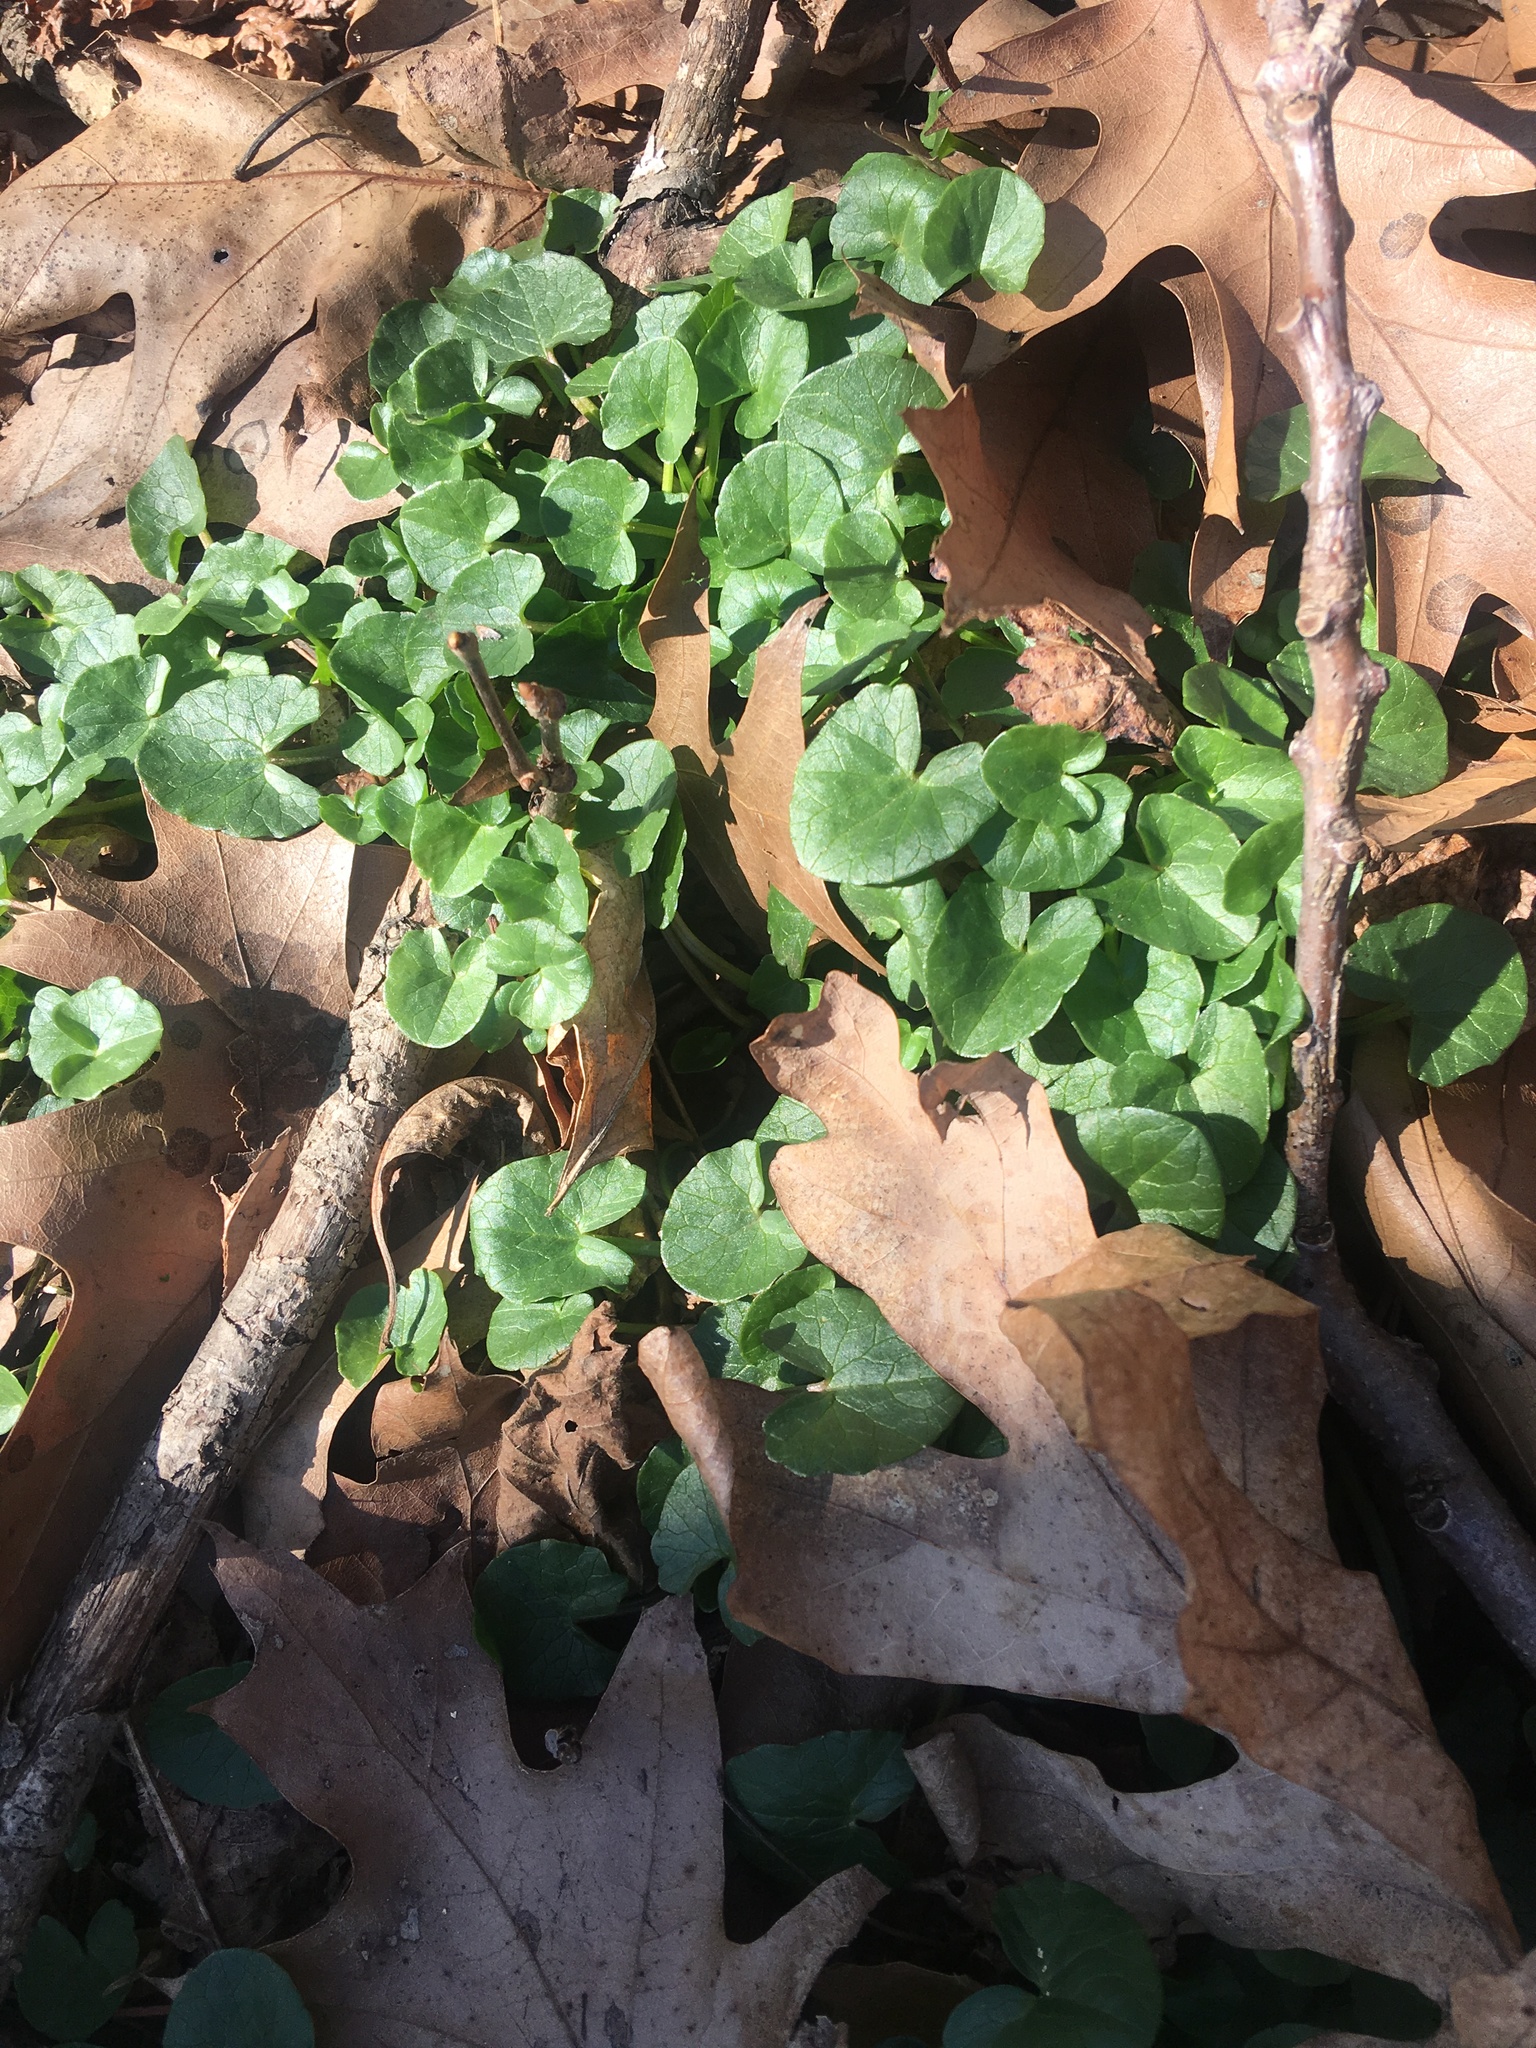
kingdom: Plantae
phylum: Tracheophyta
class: Magnoliopsida
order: Ranunculales
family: Ranunculaceae
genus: Ficaria
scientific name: Ficaria verna
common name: Lesser celandine
